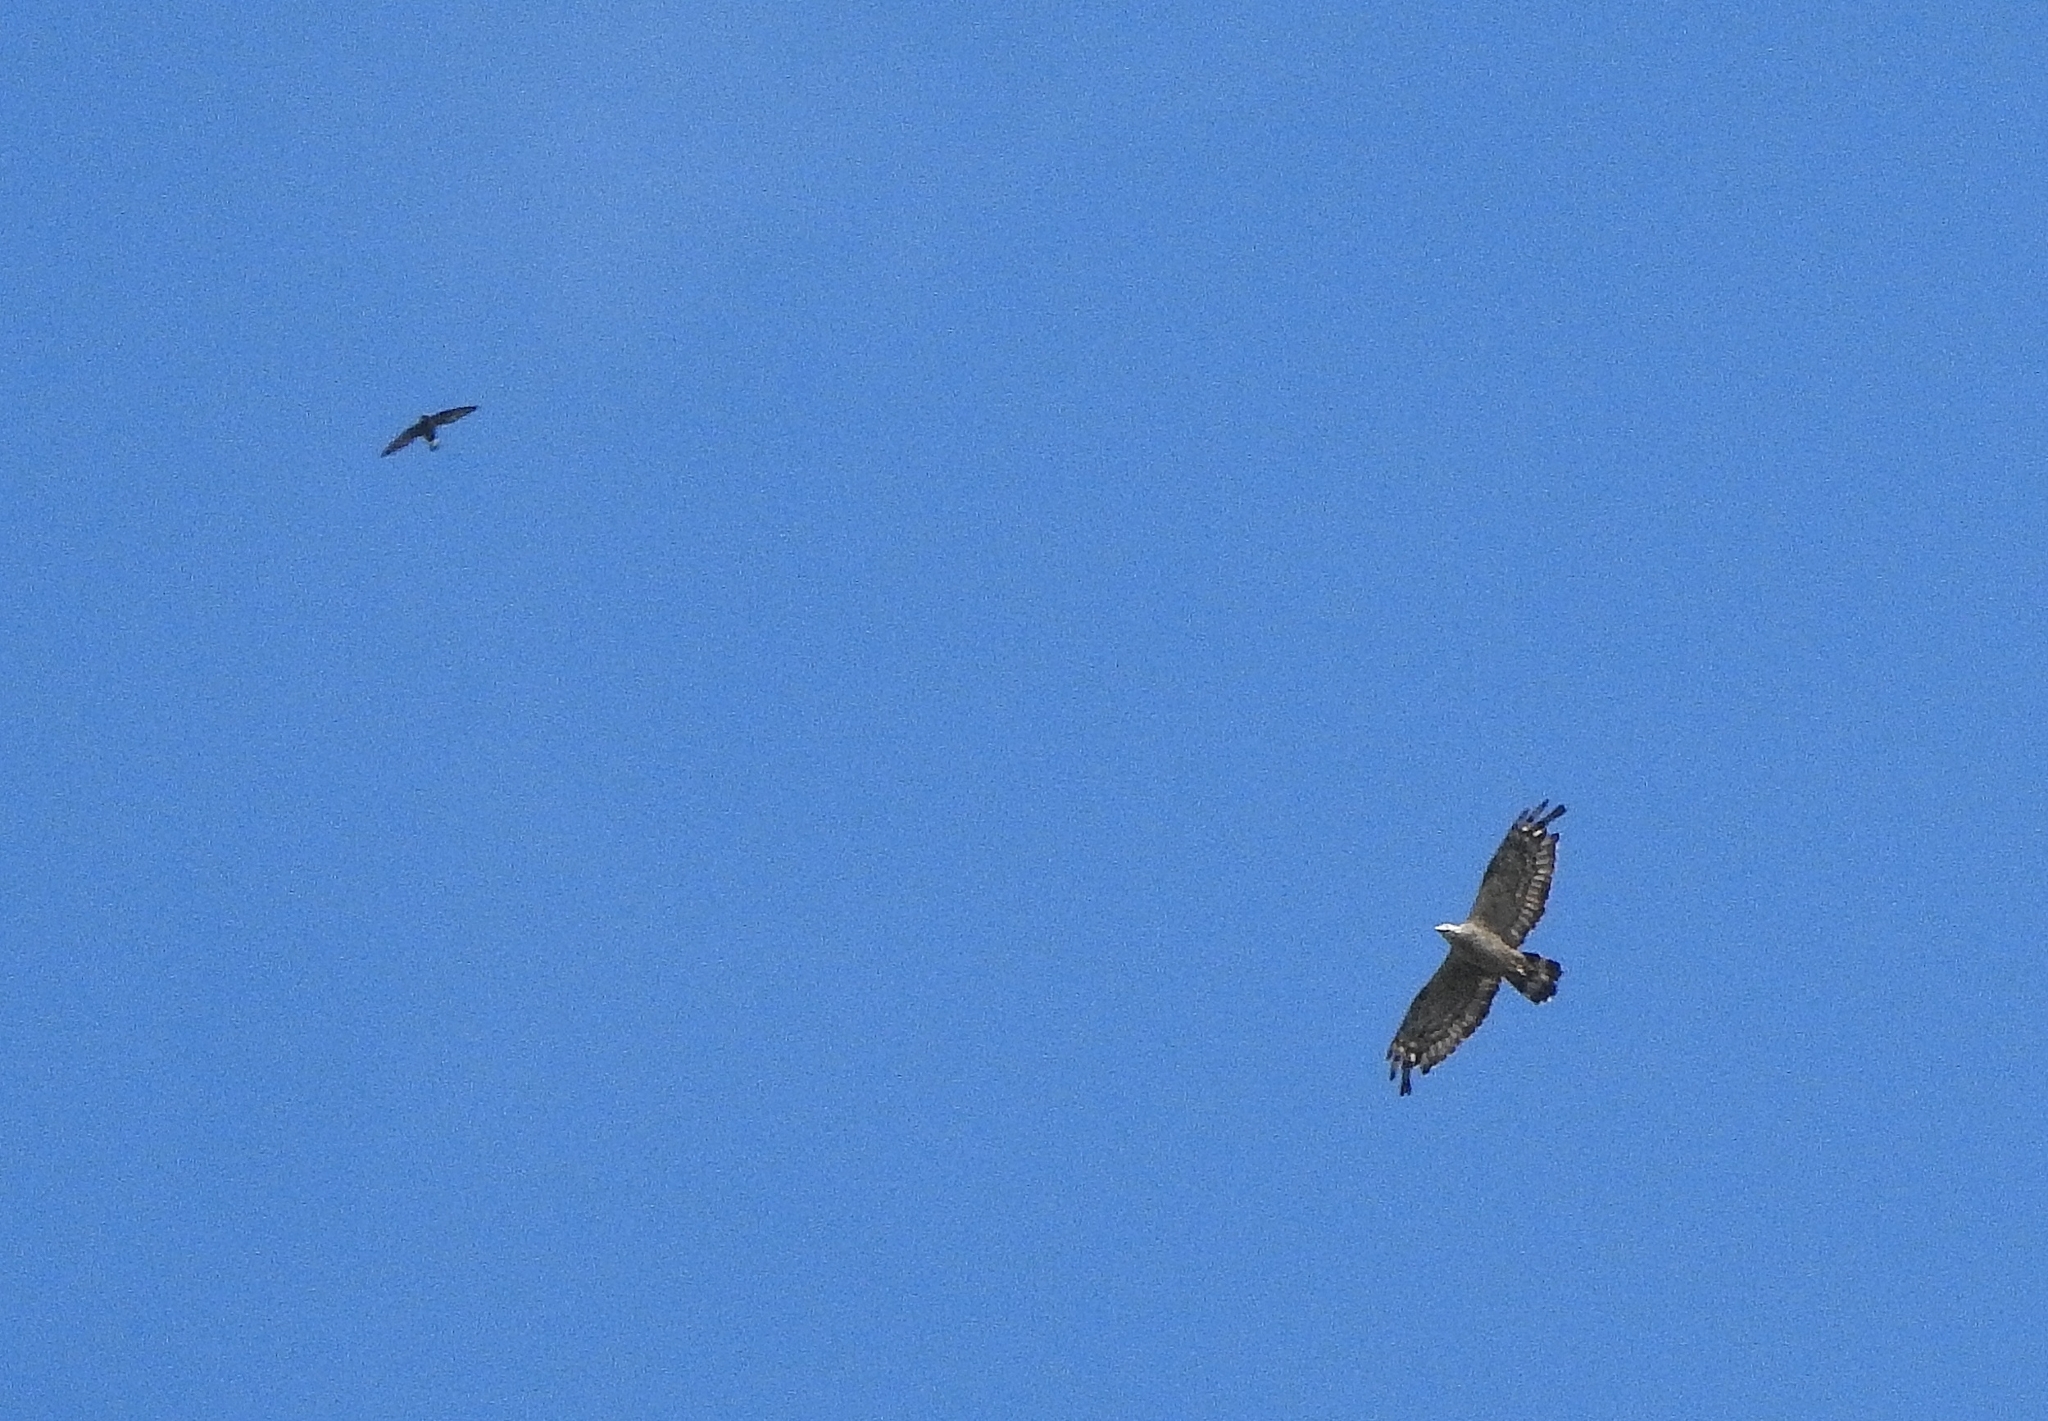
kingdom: Animalia
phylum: Chordata
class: Aves
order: Apodiformes
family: Apodidae
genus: Hirundapus
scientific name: Hirundapus giganteus
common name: Brown-backed needletail
